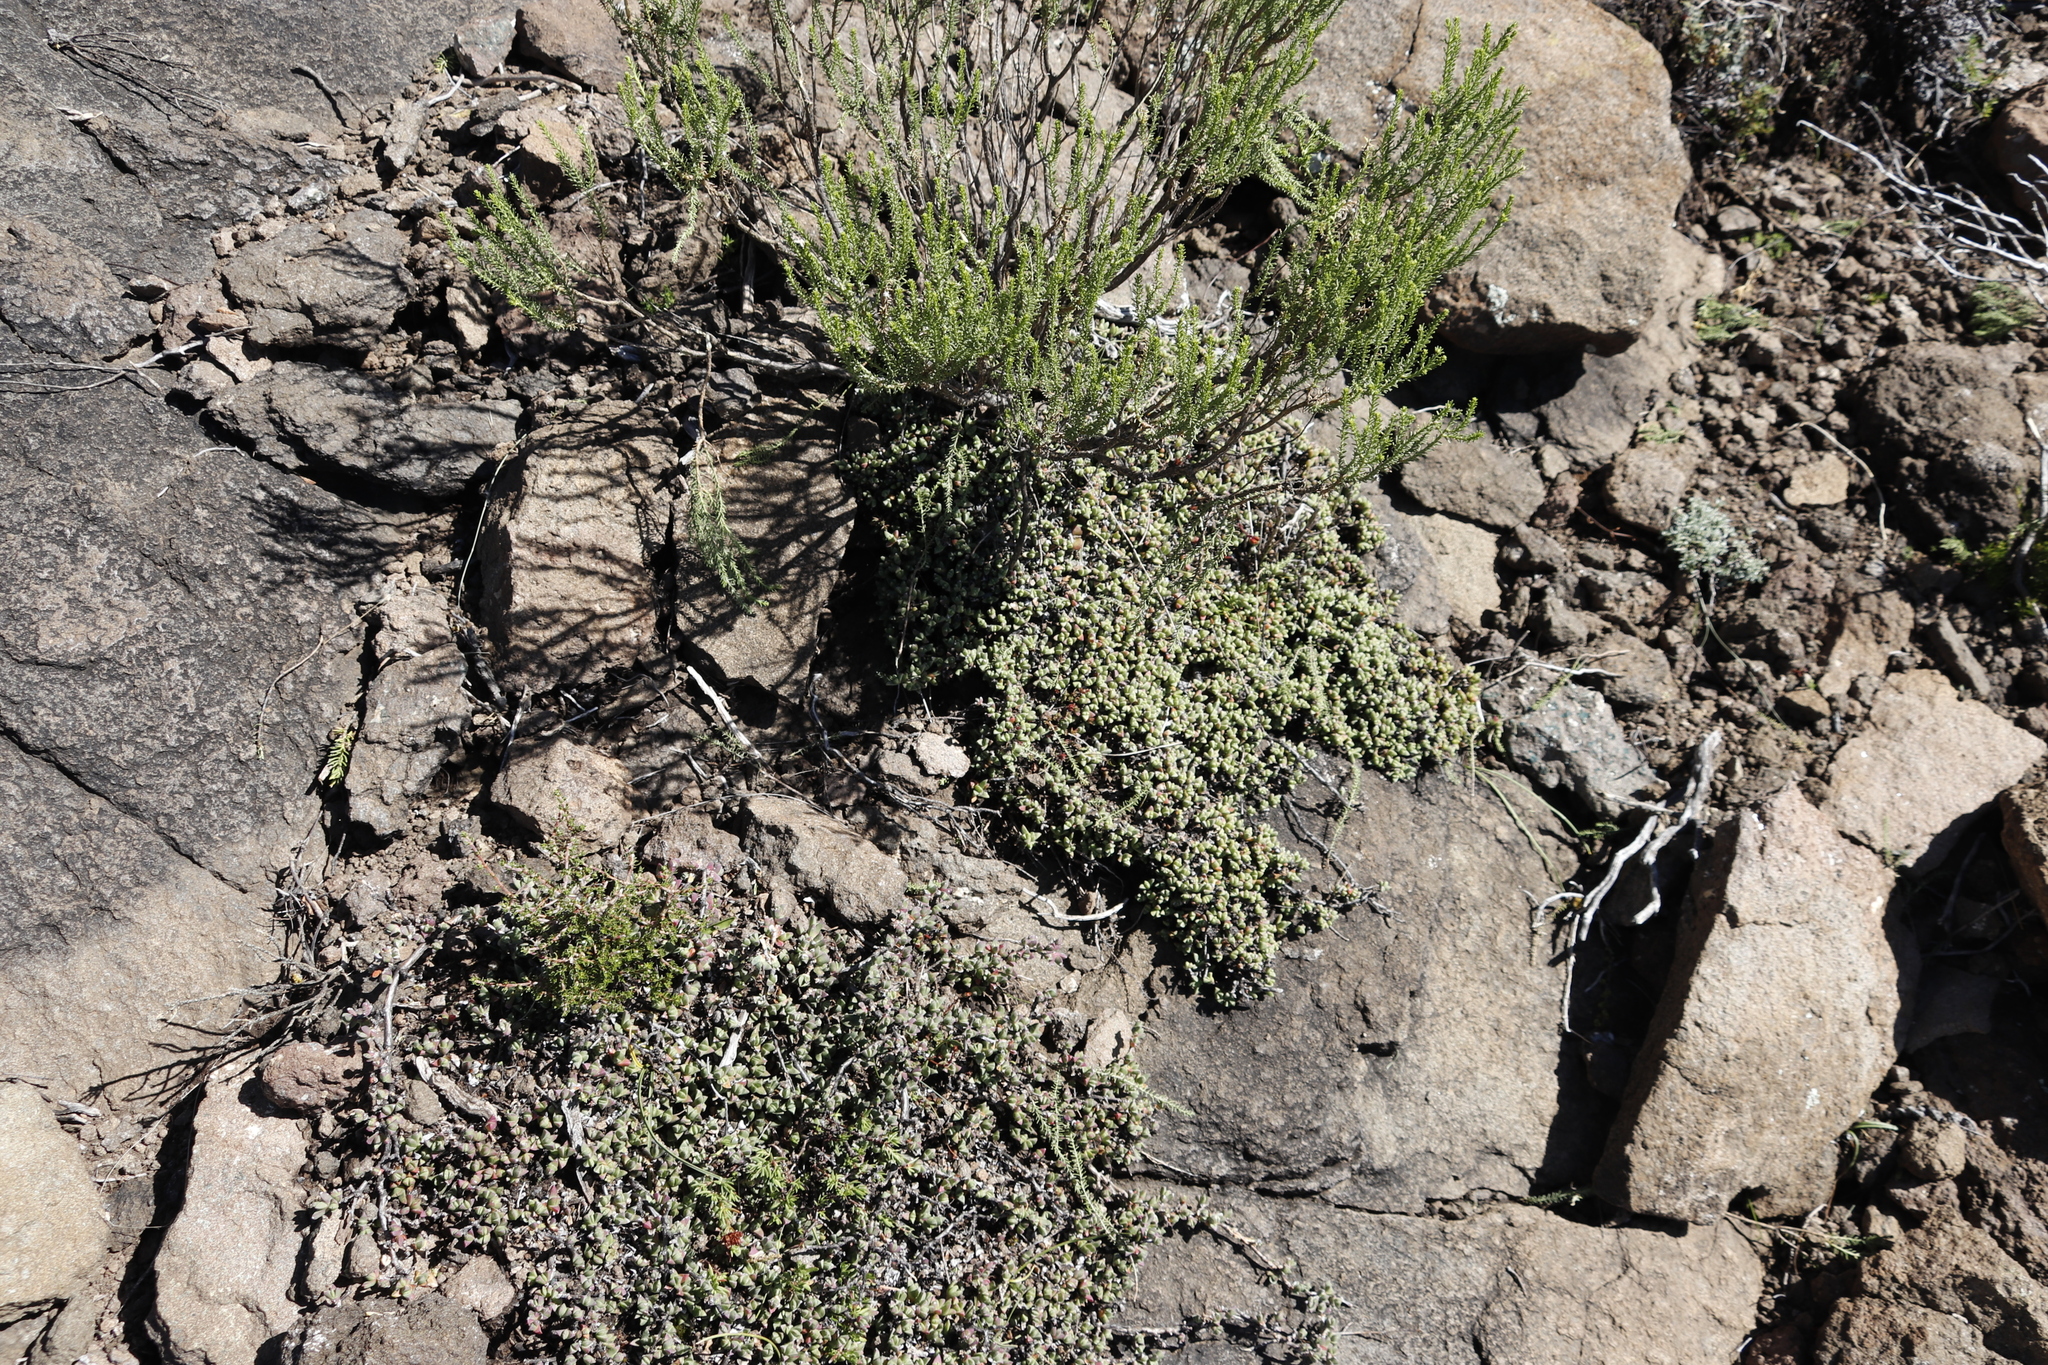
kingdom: Plantae
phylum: Tracheophyta
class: Magnoliopsida
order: Caryophyllales
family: Aizoaceae
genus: Ruschia
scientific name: Ruschia putterillii
